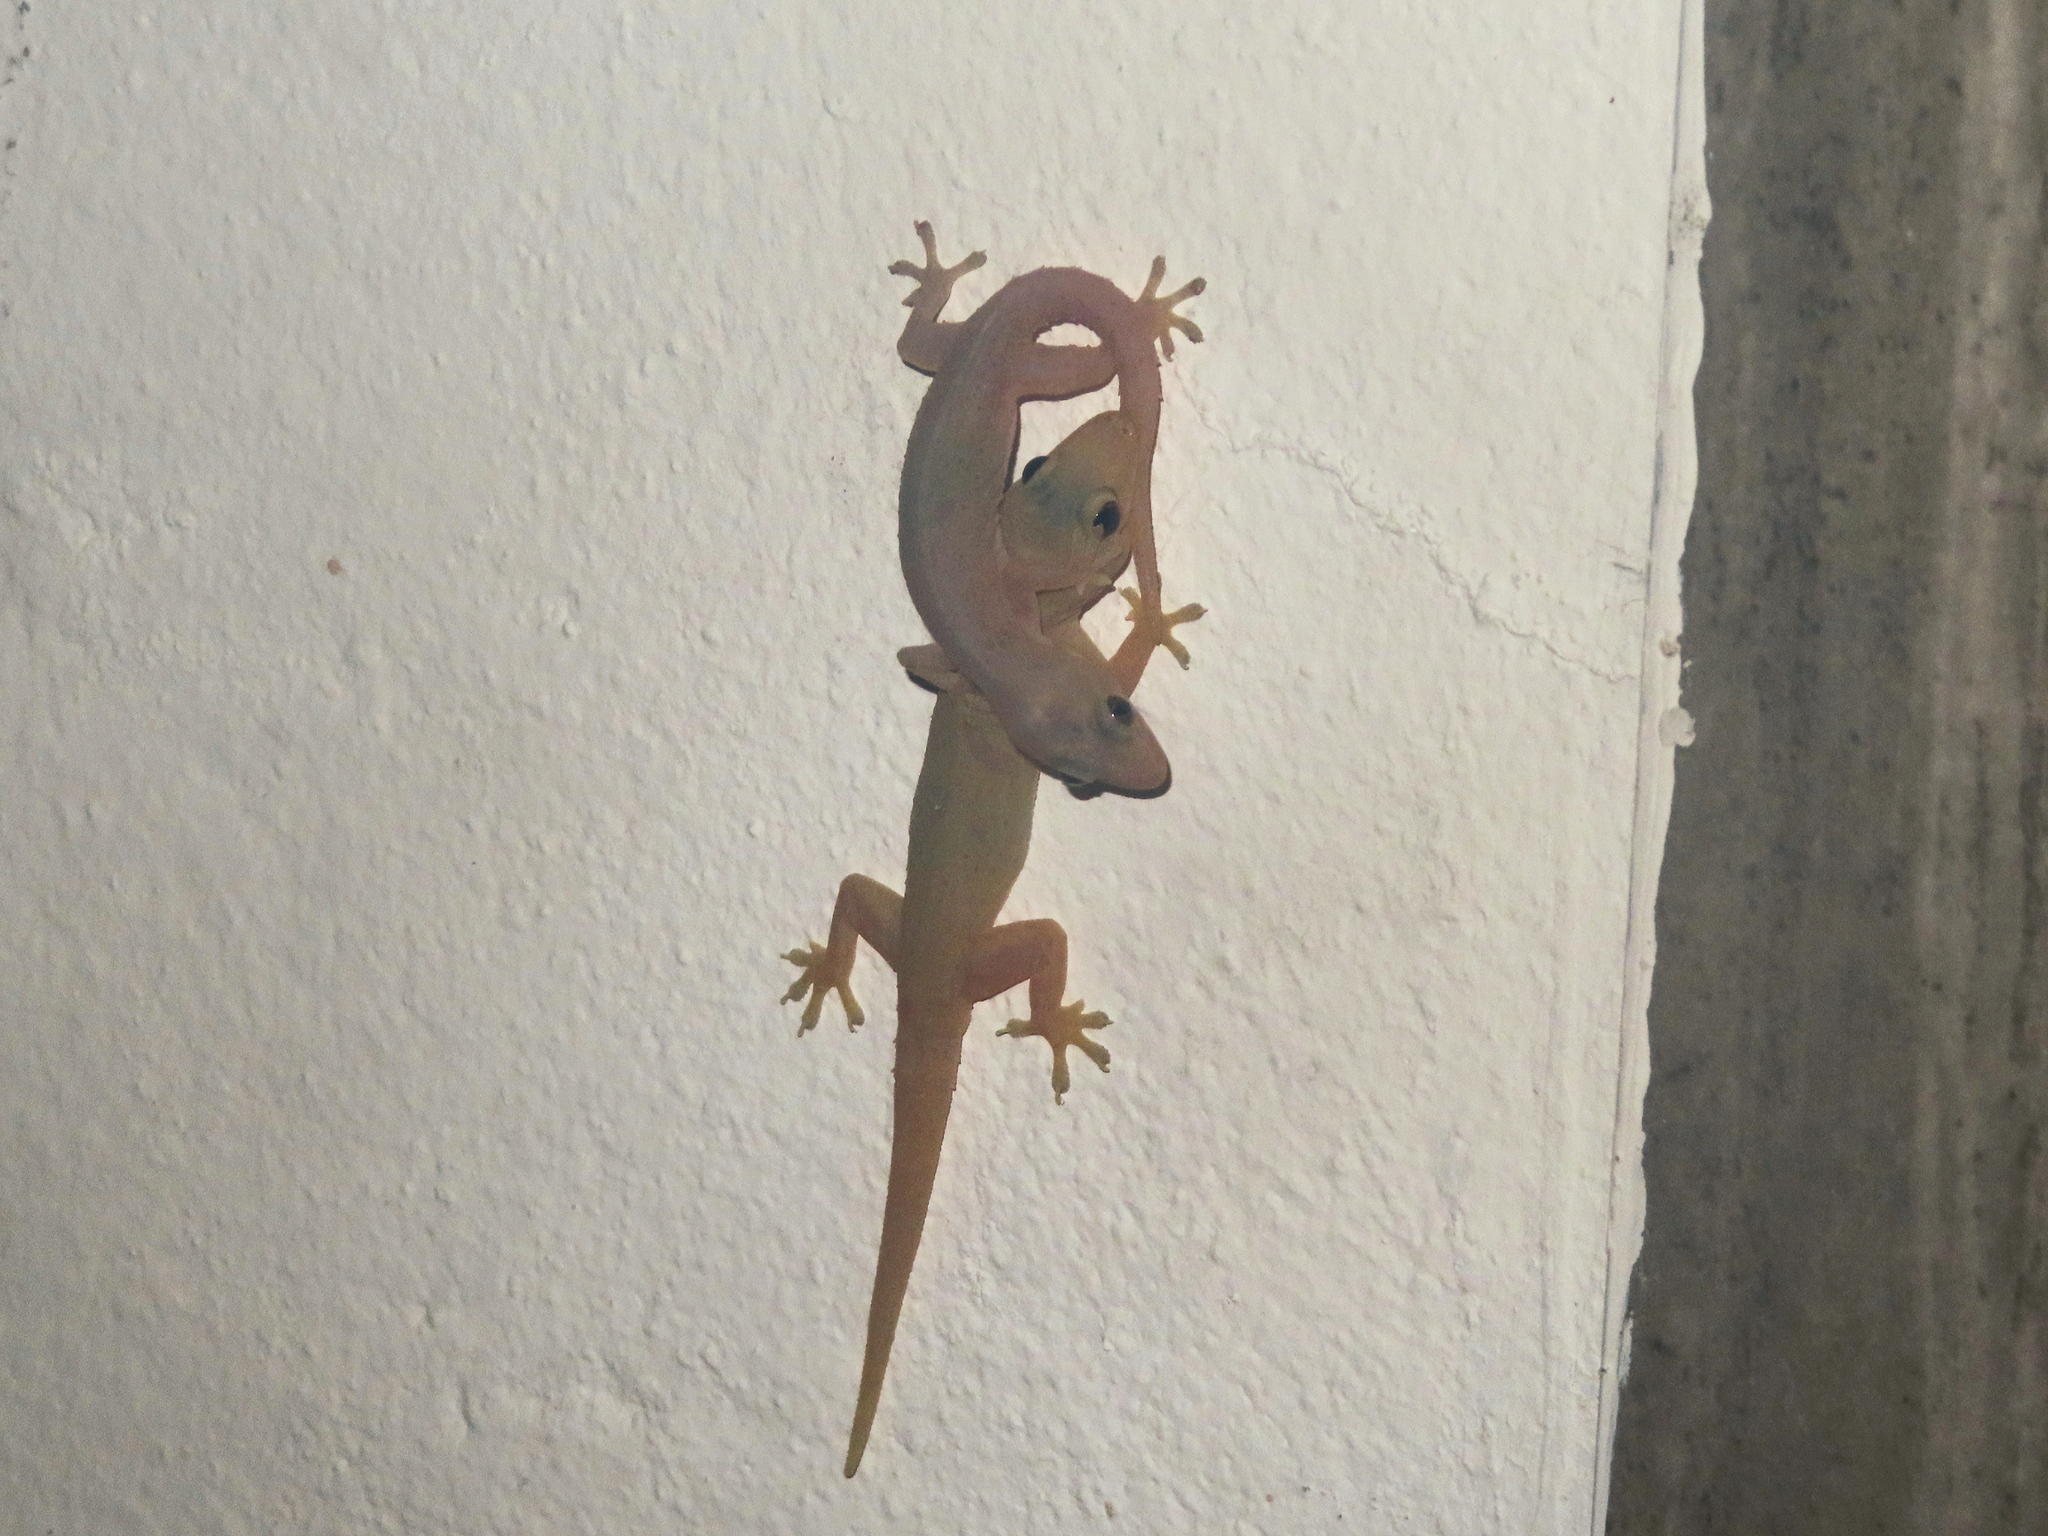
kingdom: Animalia
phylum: Chordata
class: Squamata
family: Gekkonidae
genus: Hemidactylus
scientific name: Hemidactylus frenatus
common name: Common house gecko
